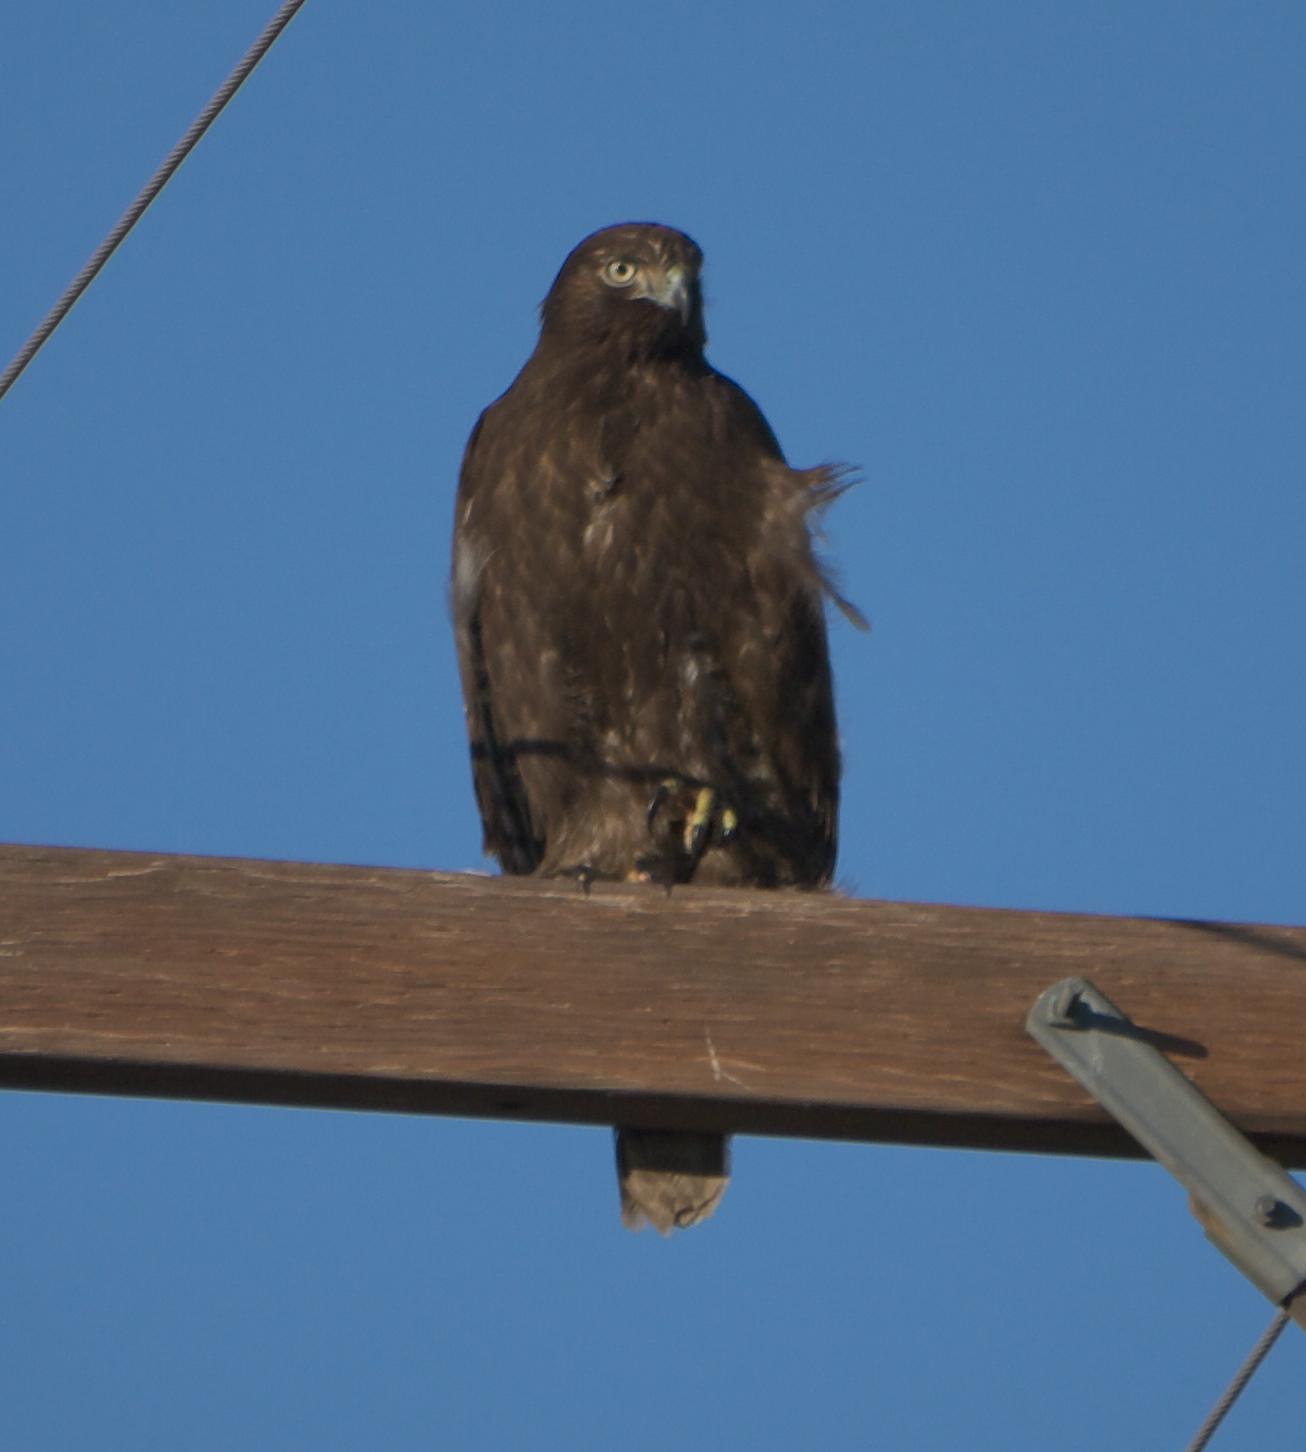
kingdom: Animalia
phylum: Chordata
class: Aves
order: Accipitriformes
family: Accipitridae
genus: Buteo
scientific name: Buteo brachyurus
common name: Short-tailed hawk
